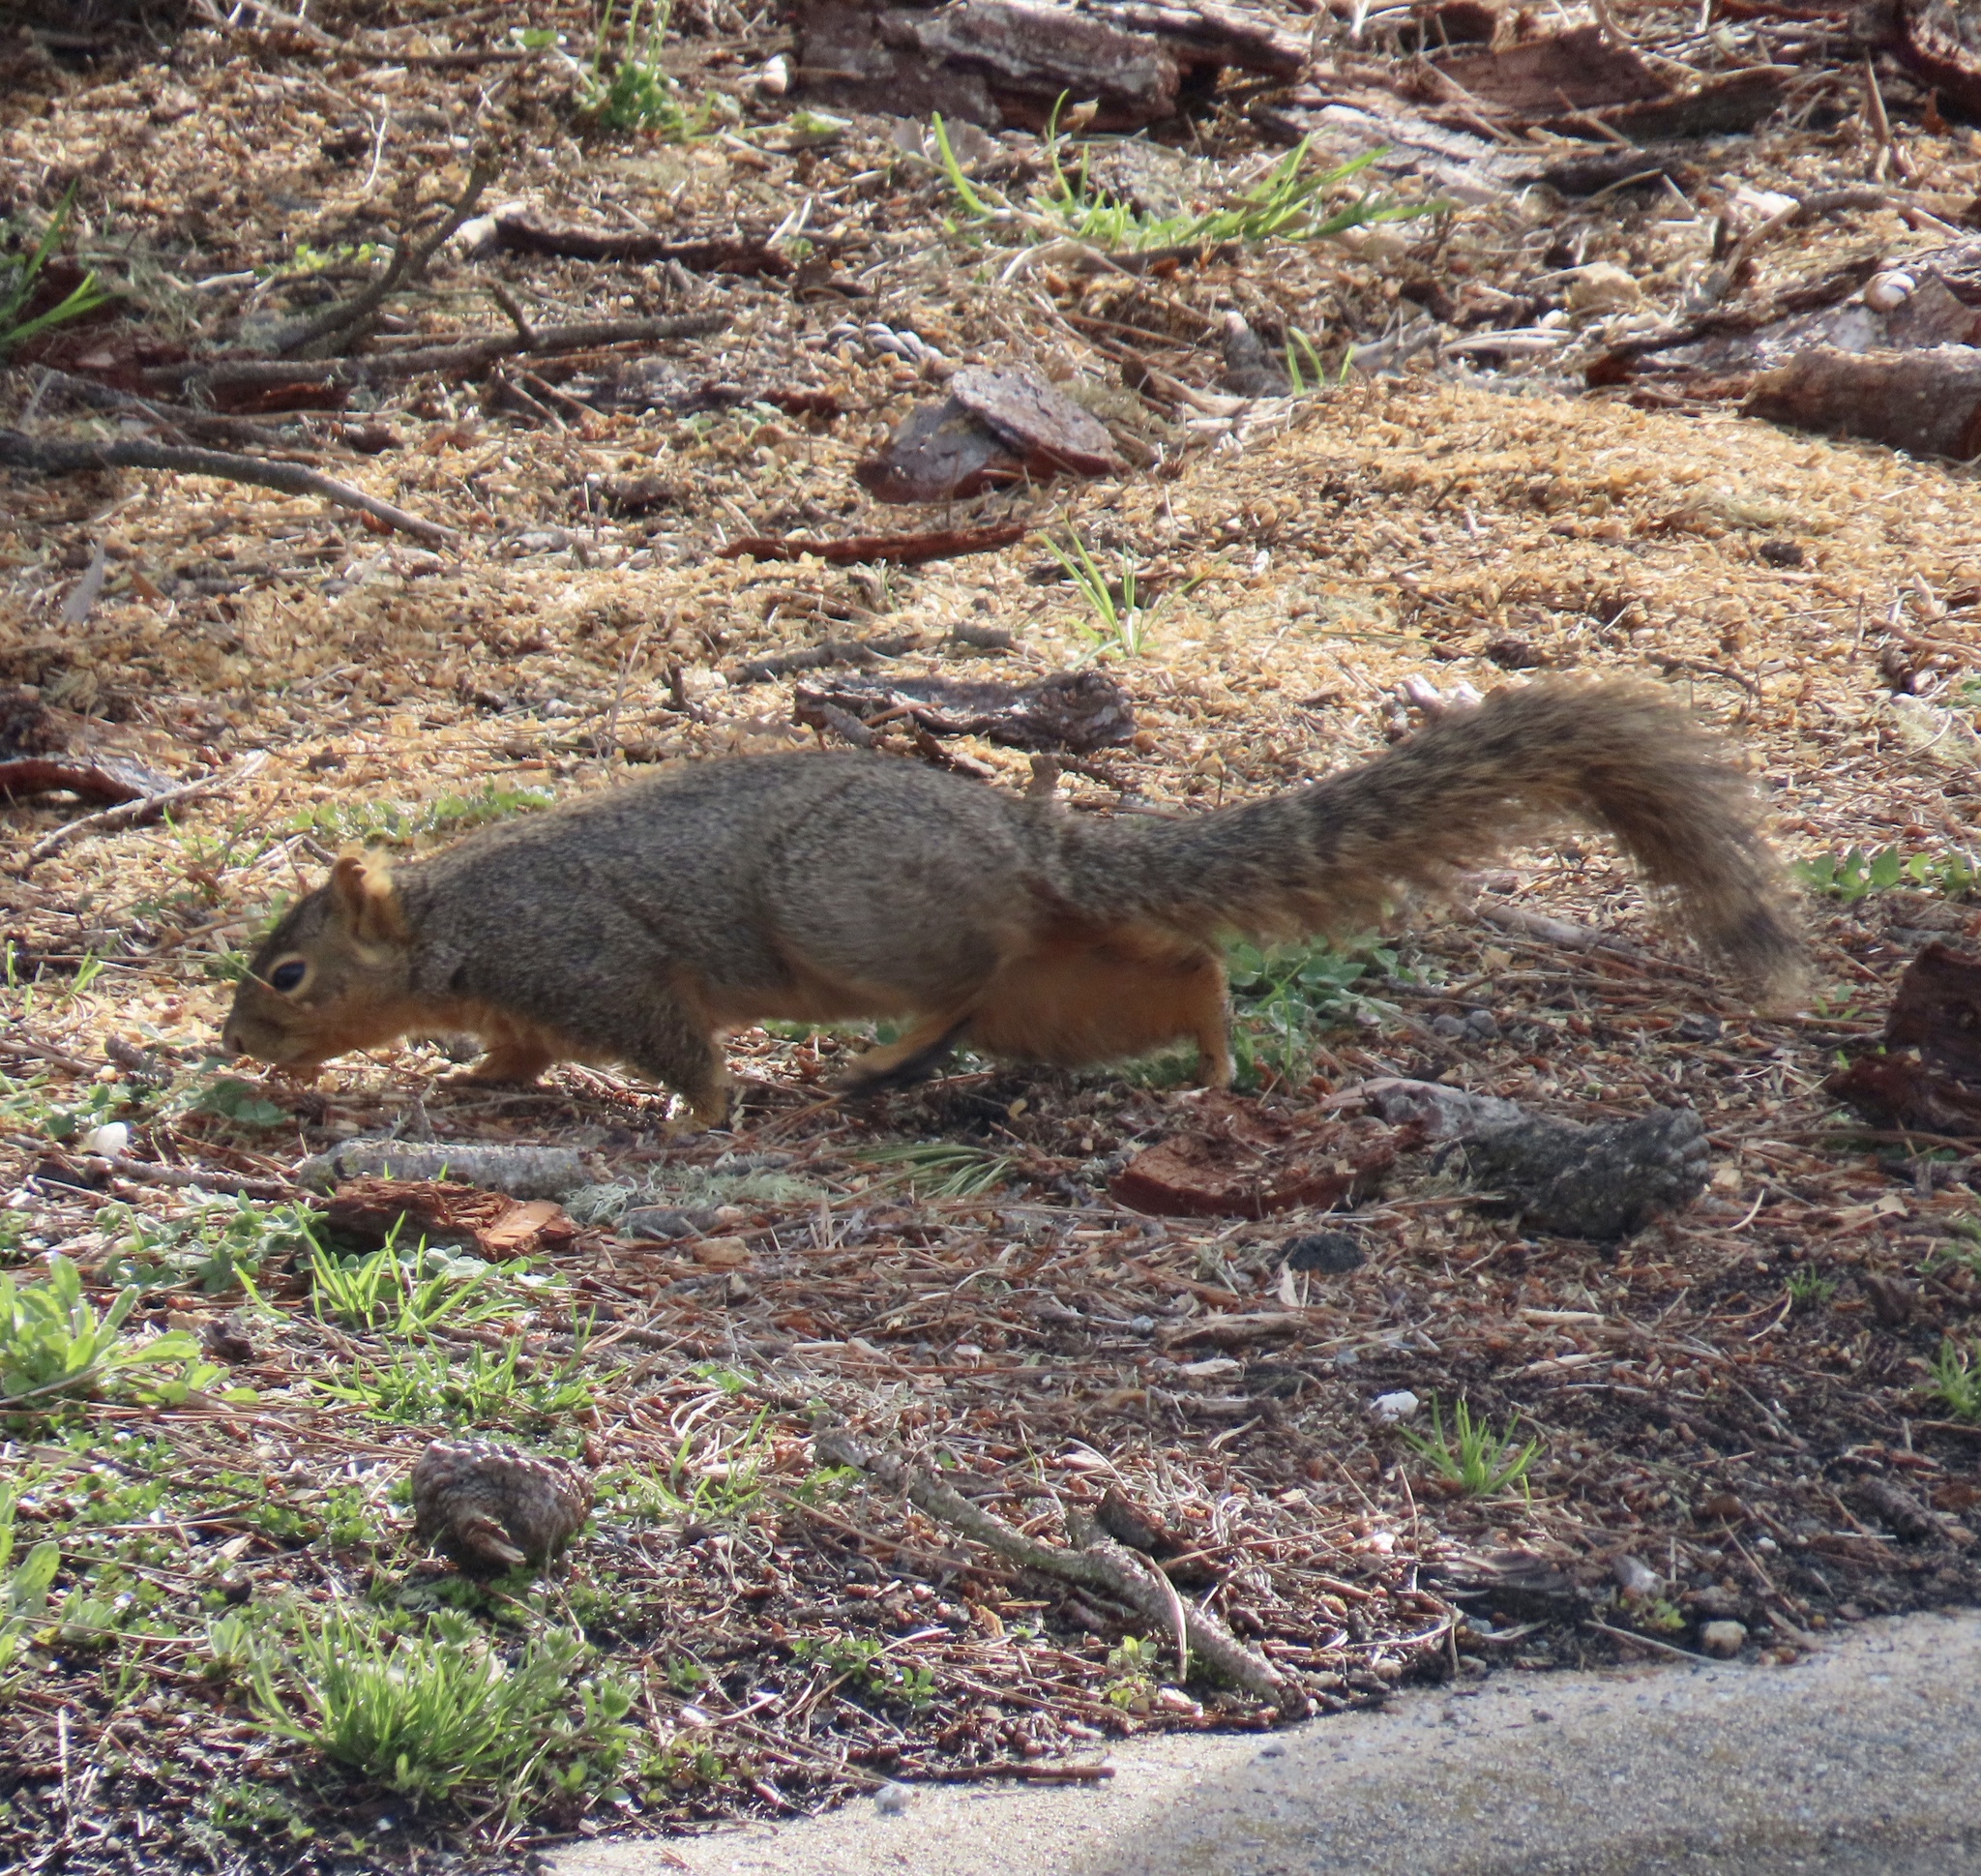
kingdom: Animalia
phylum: Chordata
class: Mammalia
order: Rodentia
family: Sciuridae
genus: Sciurus
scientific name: Sciurus niger
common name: Fox squirrel
